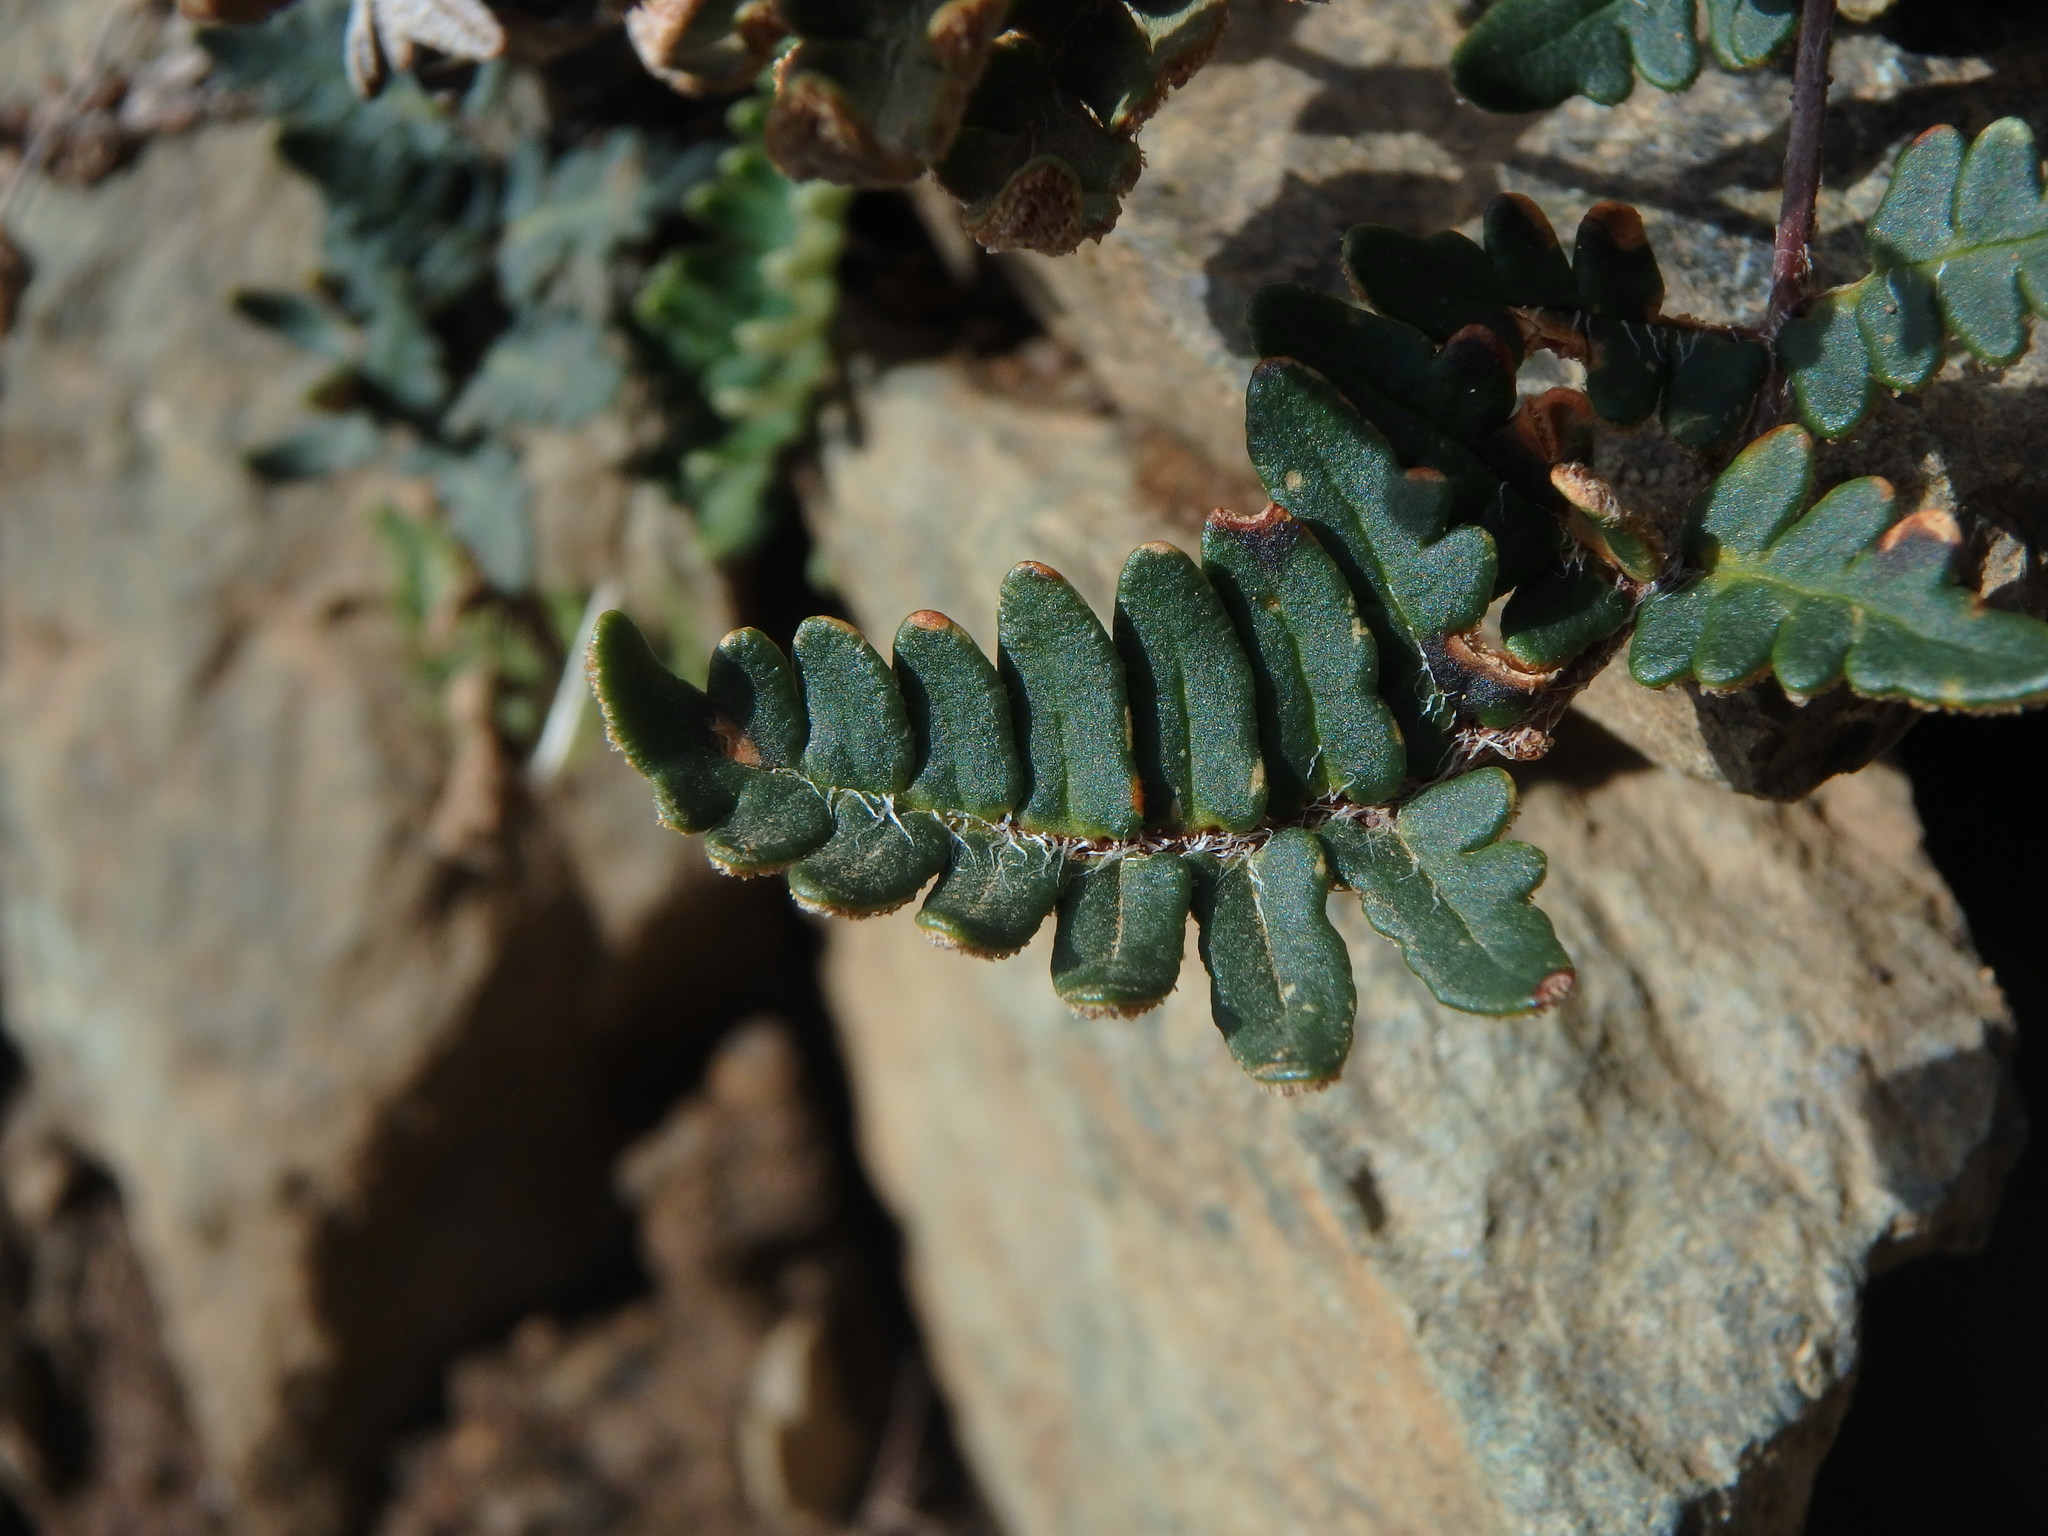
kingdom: Plantae
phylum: Tracheophyta
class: Polypodiopsida
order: Polypodiales
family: Pteridaceae
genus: Paragymnopteris
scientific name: Paragymnopteris marantae
